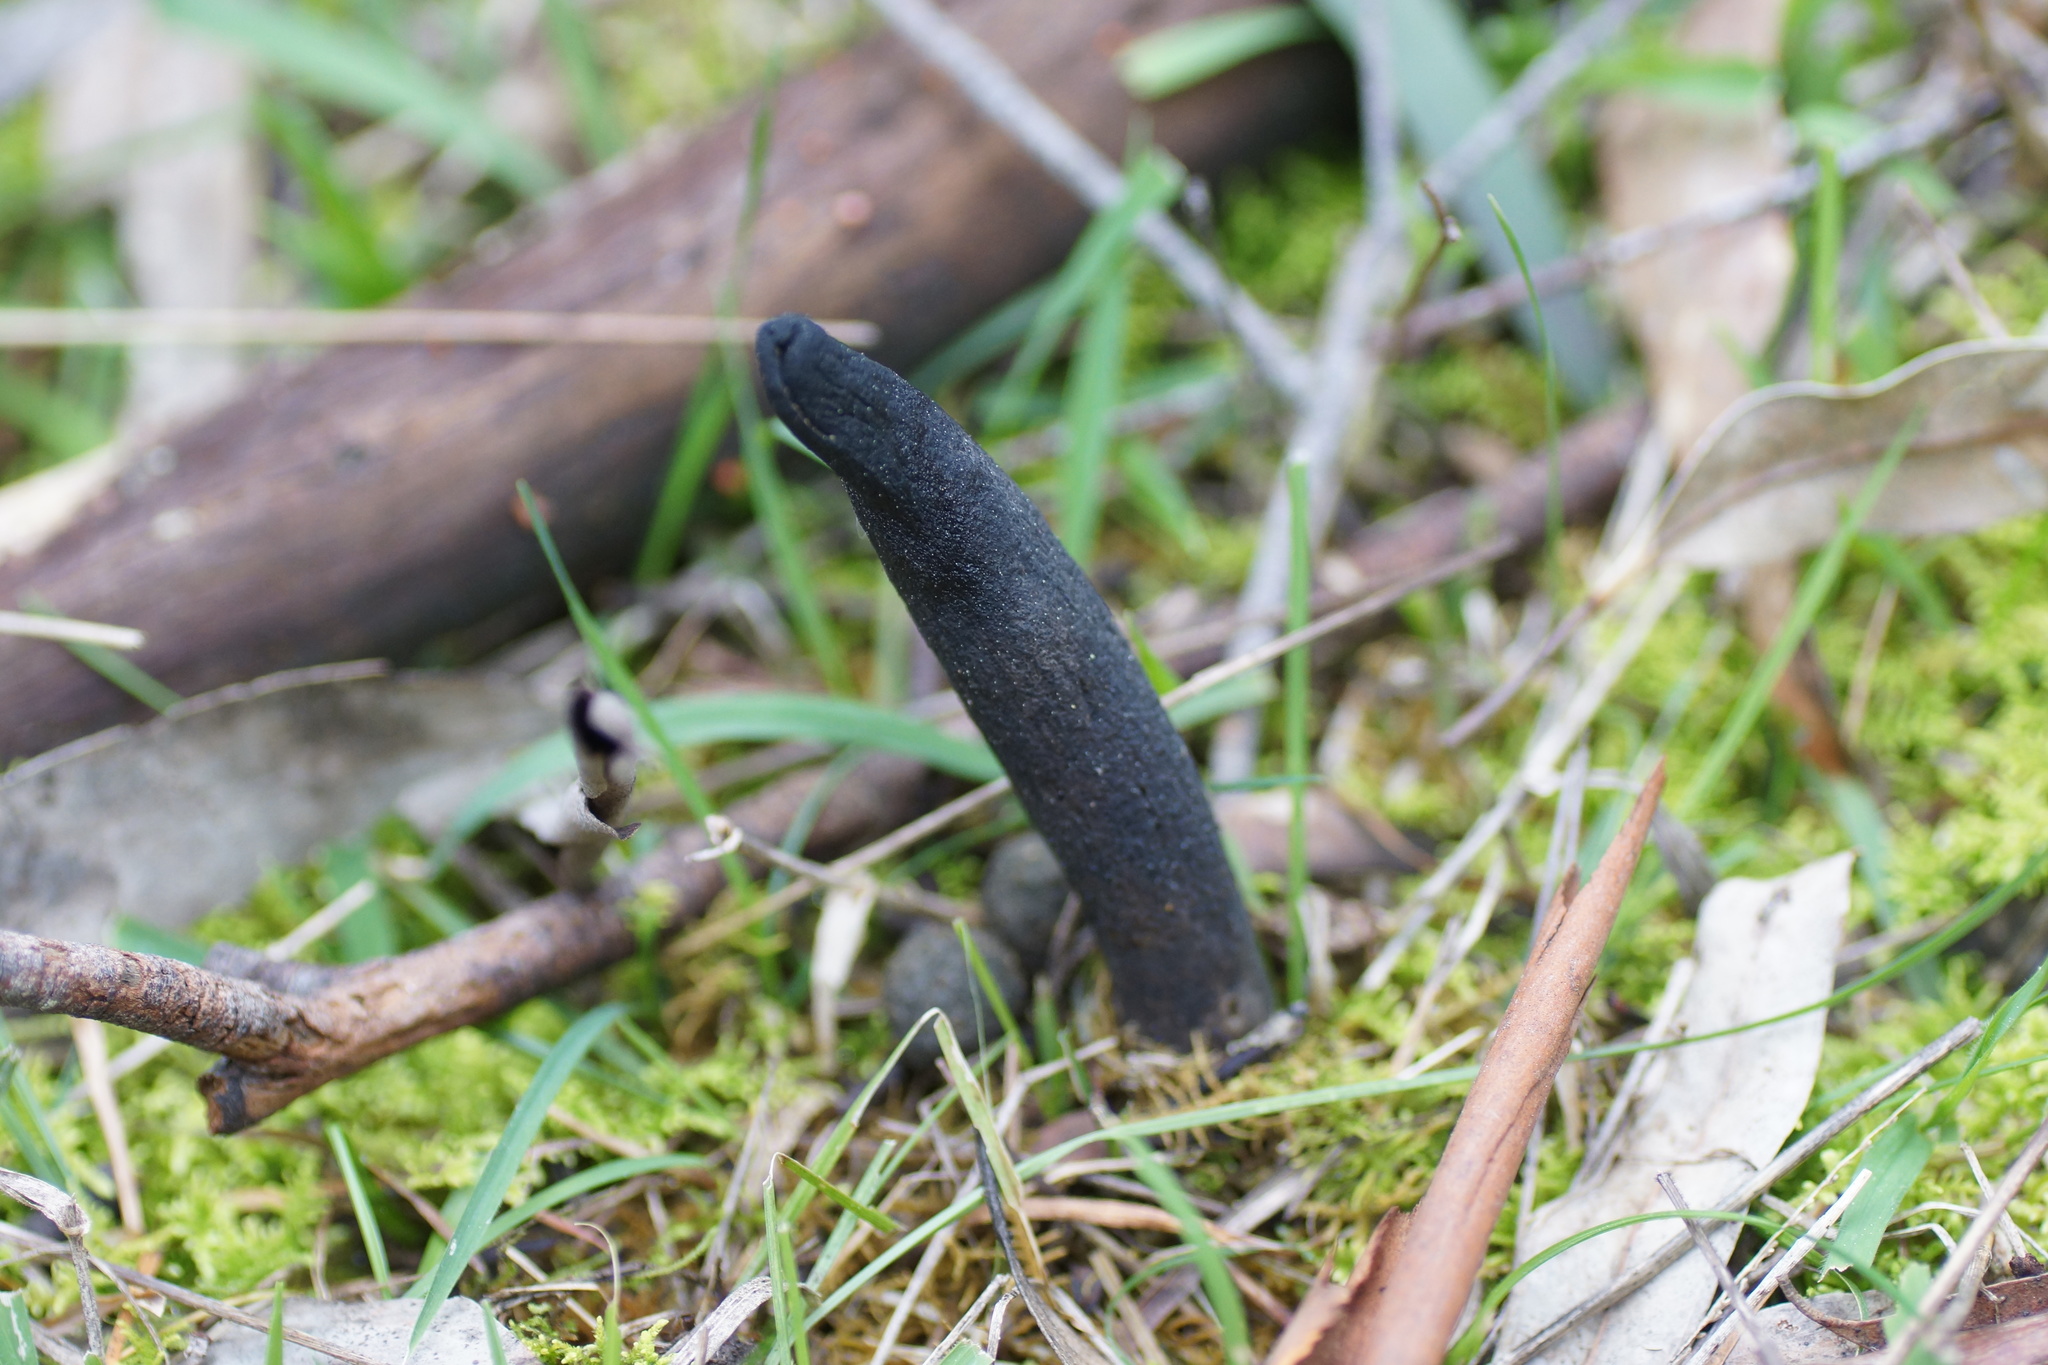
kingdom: Fungi
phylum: Ascomycota
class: Sordariomycetes
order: Hypocreales
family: Clavicipitaceae
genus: Drechmeria
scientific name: Drechmeria gunnii
